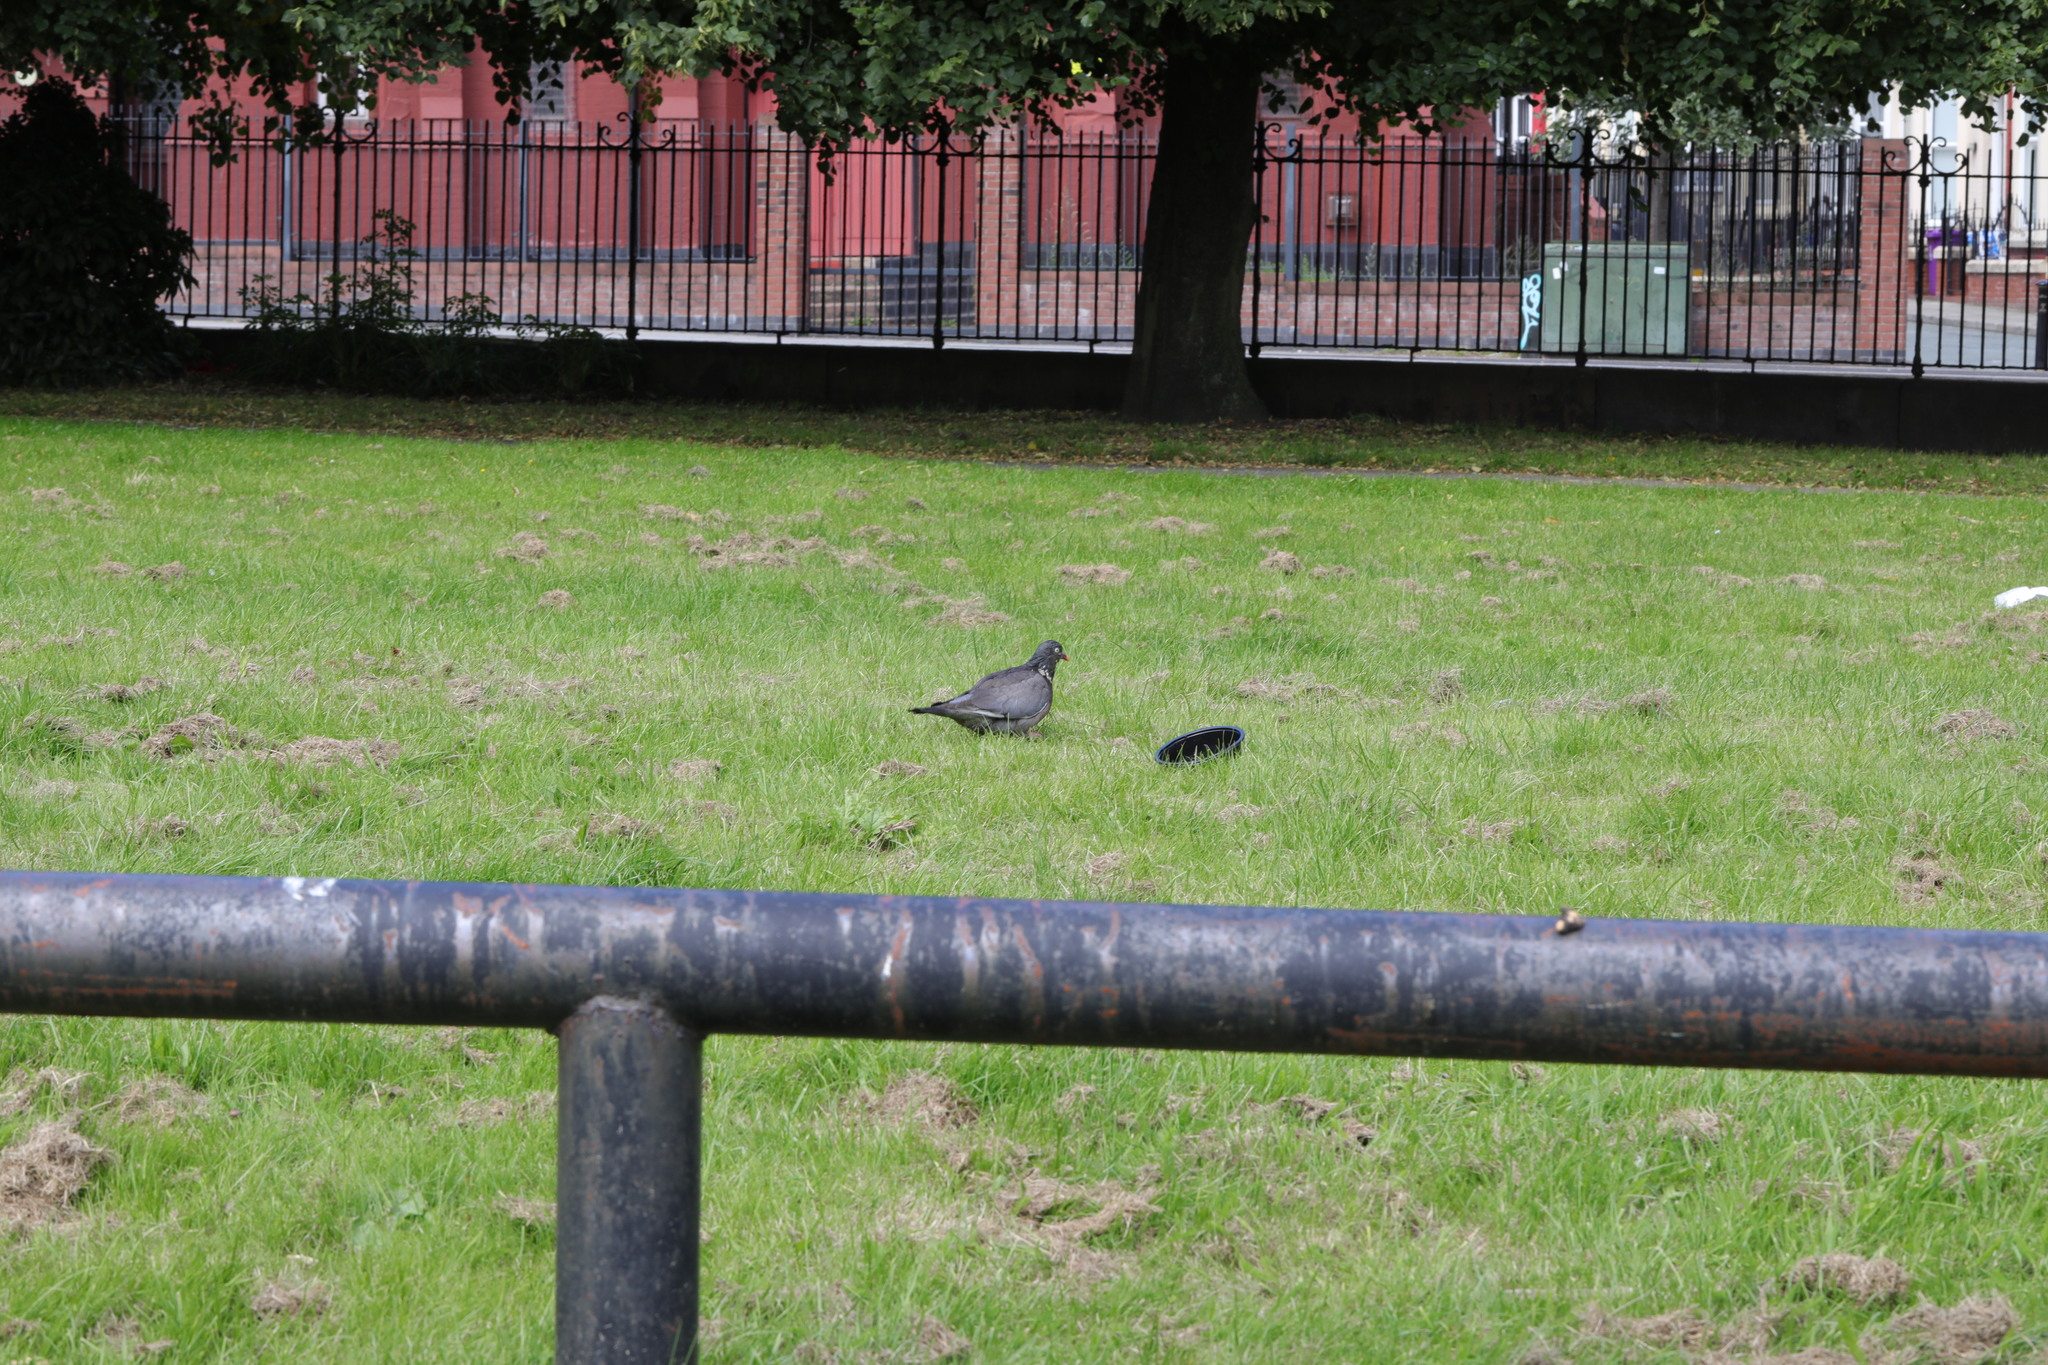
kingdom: Animalia
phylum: Chordata
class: Aves
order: Columbiformes
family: Columbidae
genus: Columba
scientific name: Columba palumbus
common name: Common wood pigeon
